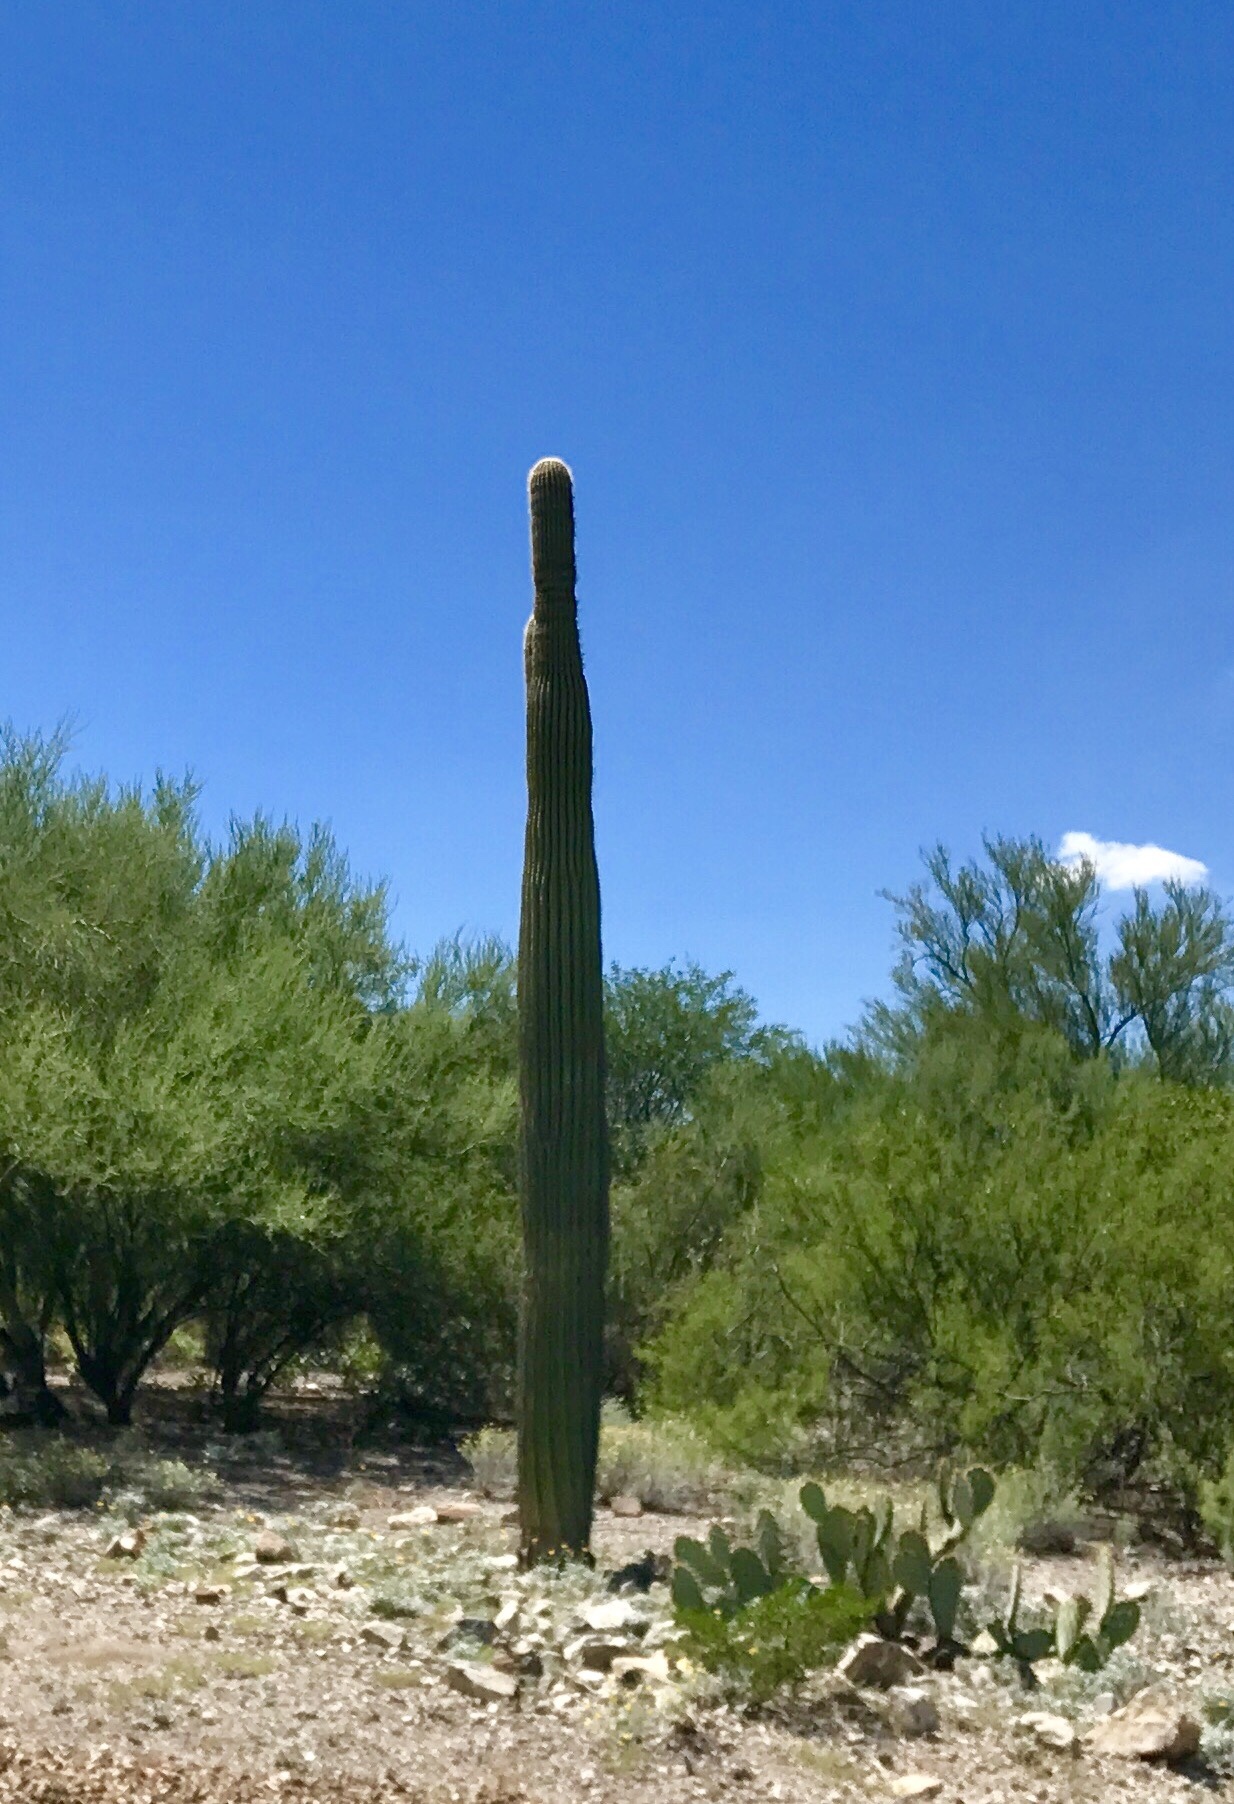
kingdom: Plantae
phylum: Tracheophyta
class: Magnoliopsida
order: Caryophyllales
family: Cactaceae
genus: Carnegiea
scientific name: Carnegiea gigantea
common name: Saguaro
